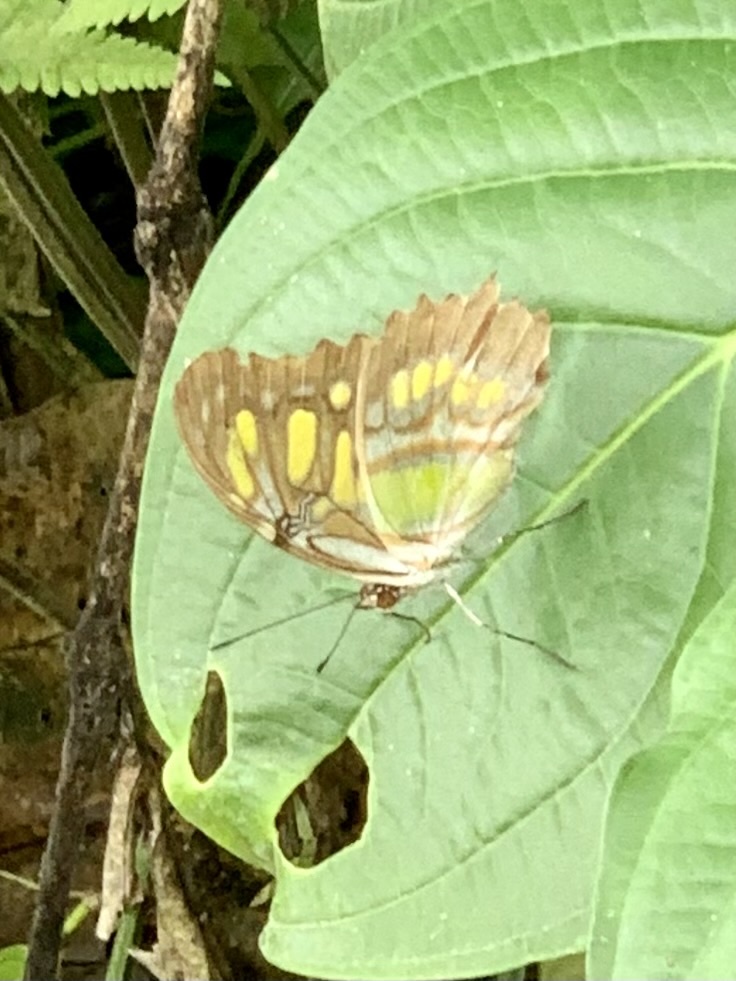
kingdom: Animalia
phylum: Arthropoda
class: Insecta
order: Lepidoptera
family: Nymphalidae
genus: Siproeta
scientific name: Siproeta stelenes
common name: Malachite
